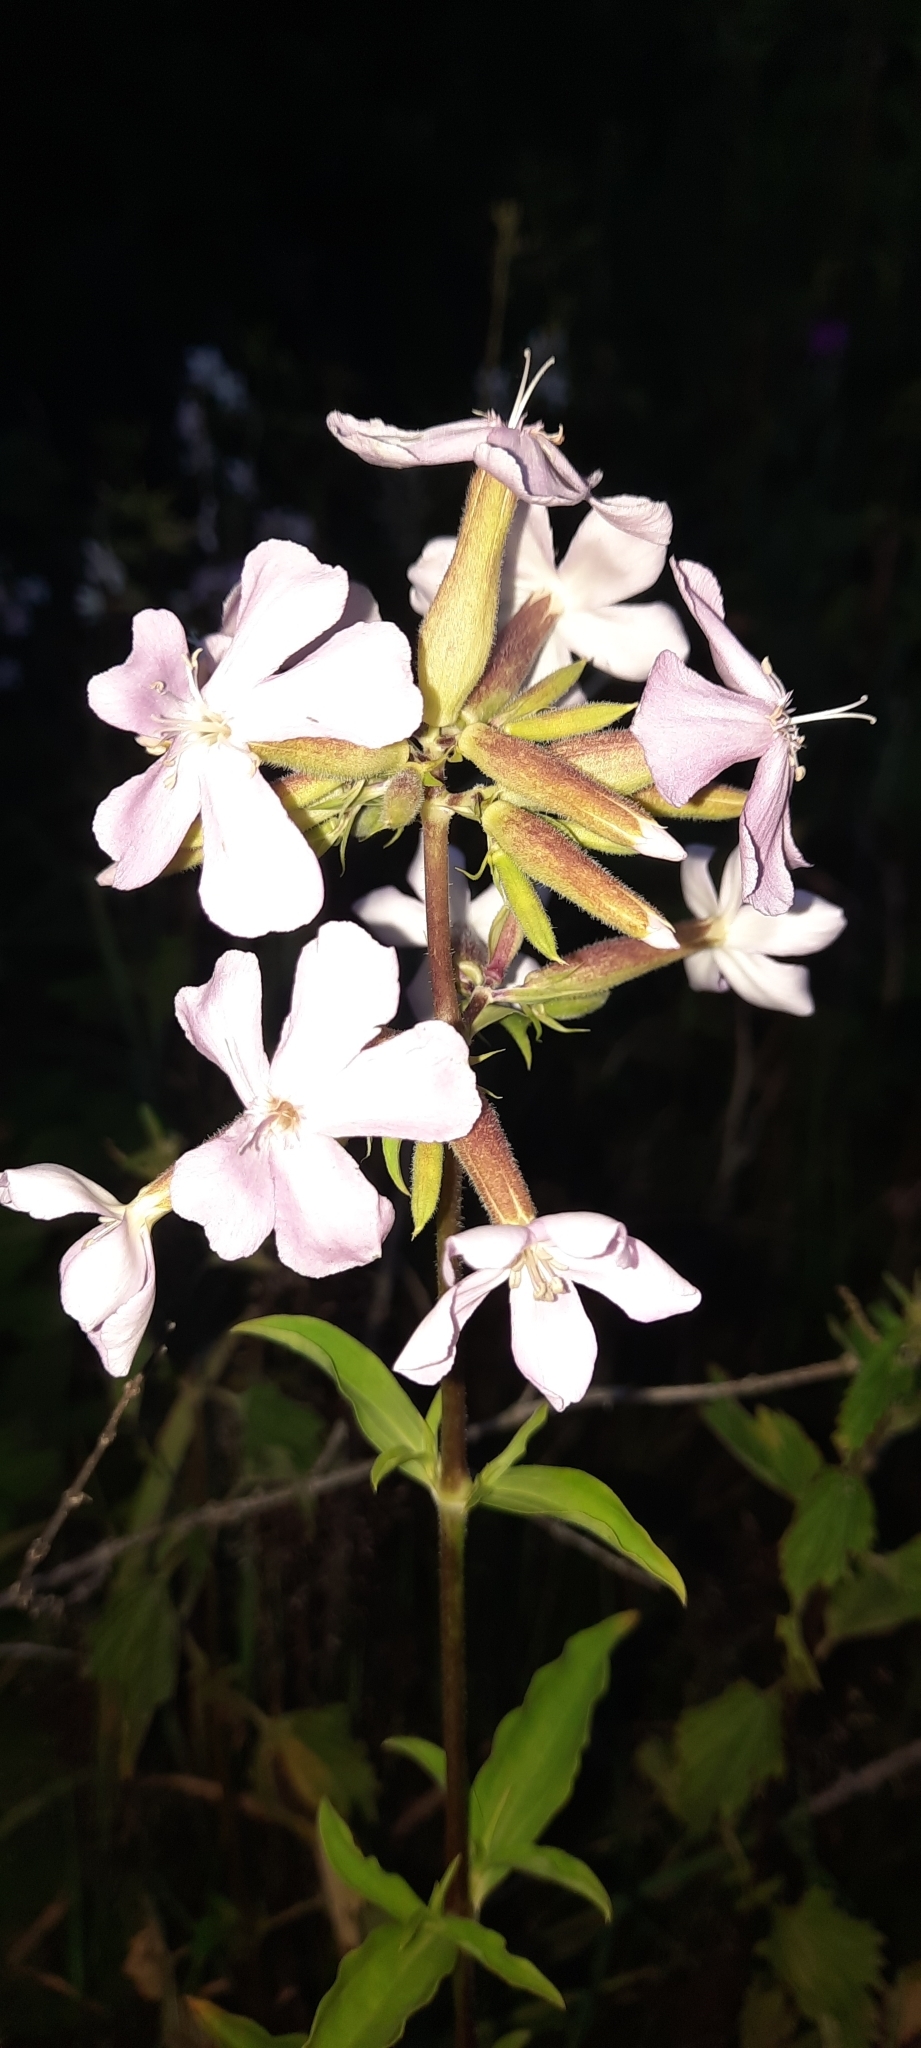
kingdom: Plantae
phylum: Tracheophyta
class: Magnoliopsida
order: Caryophyllales
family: Caryophyllaceae
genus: Saponaria
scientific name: Saponaria officinalis
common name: Soapwort
